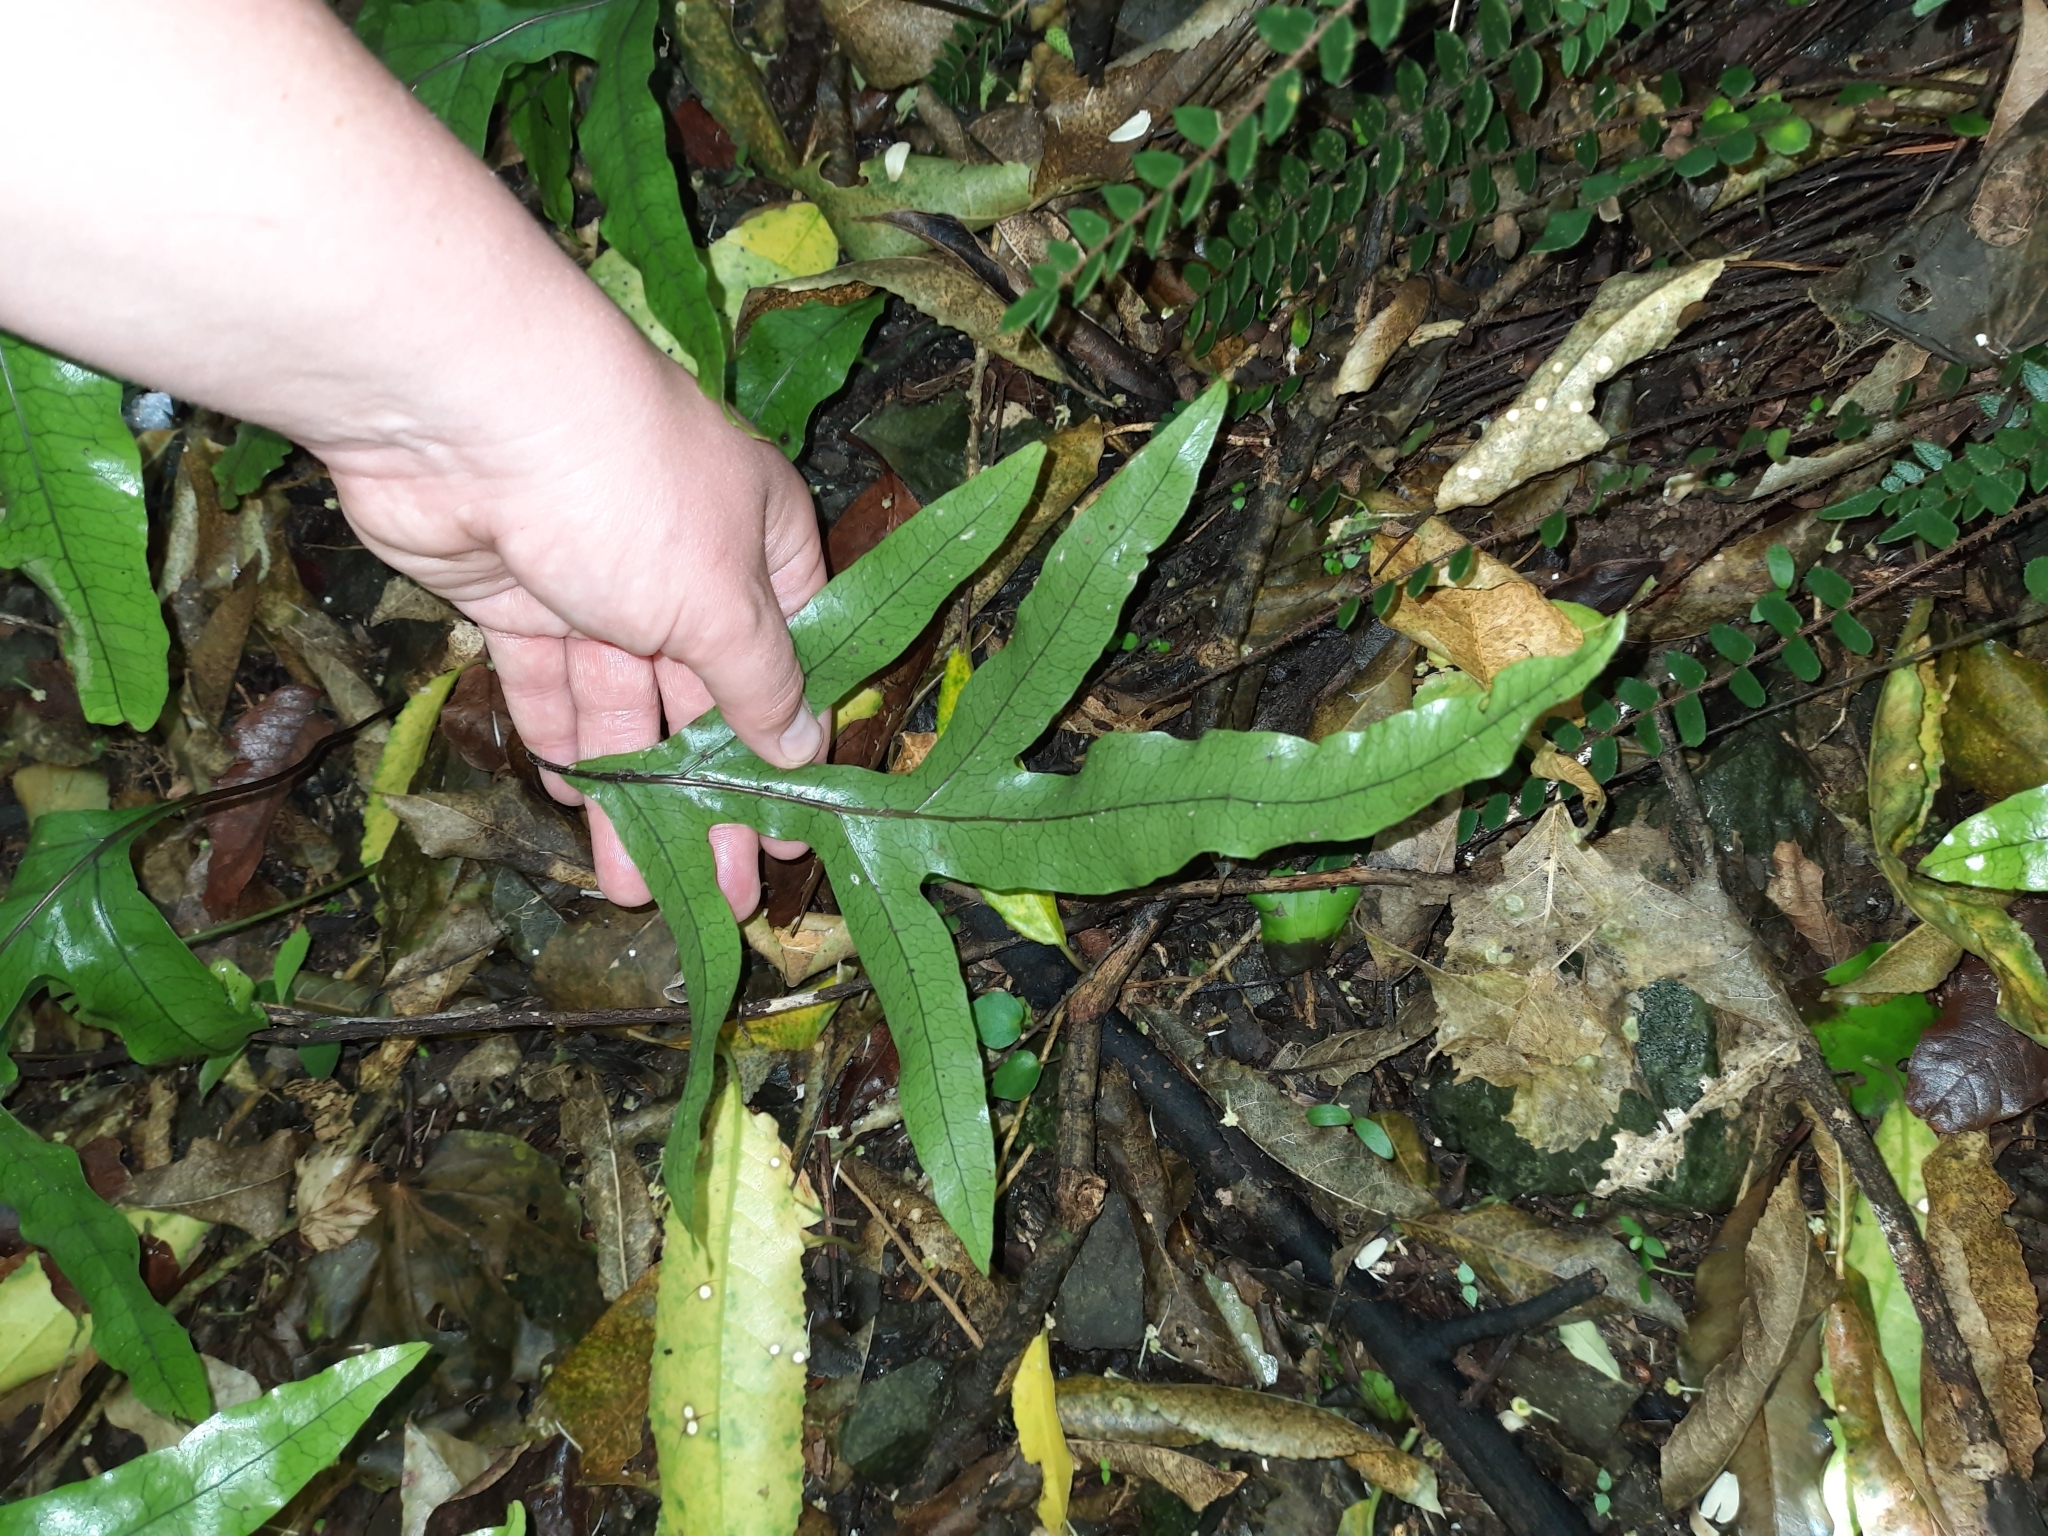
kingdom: Plantae
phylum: Tracheophyta
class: Polypodiopsida
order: Polypodiales
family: Polypodiaceae
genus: Lecanopteris
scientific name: Lecanopteris pustulata
